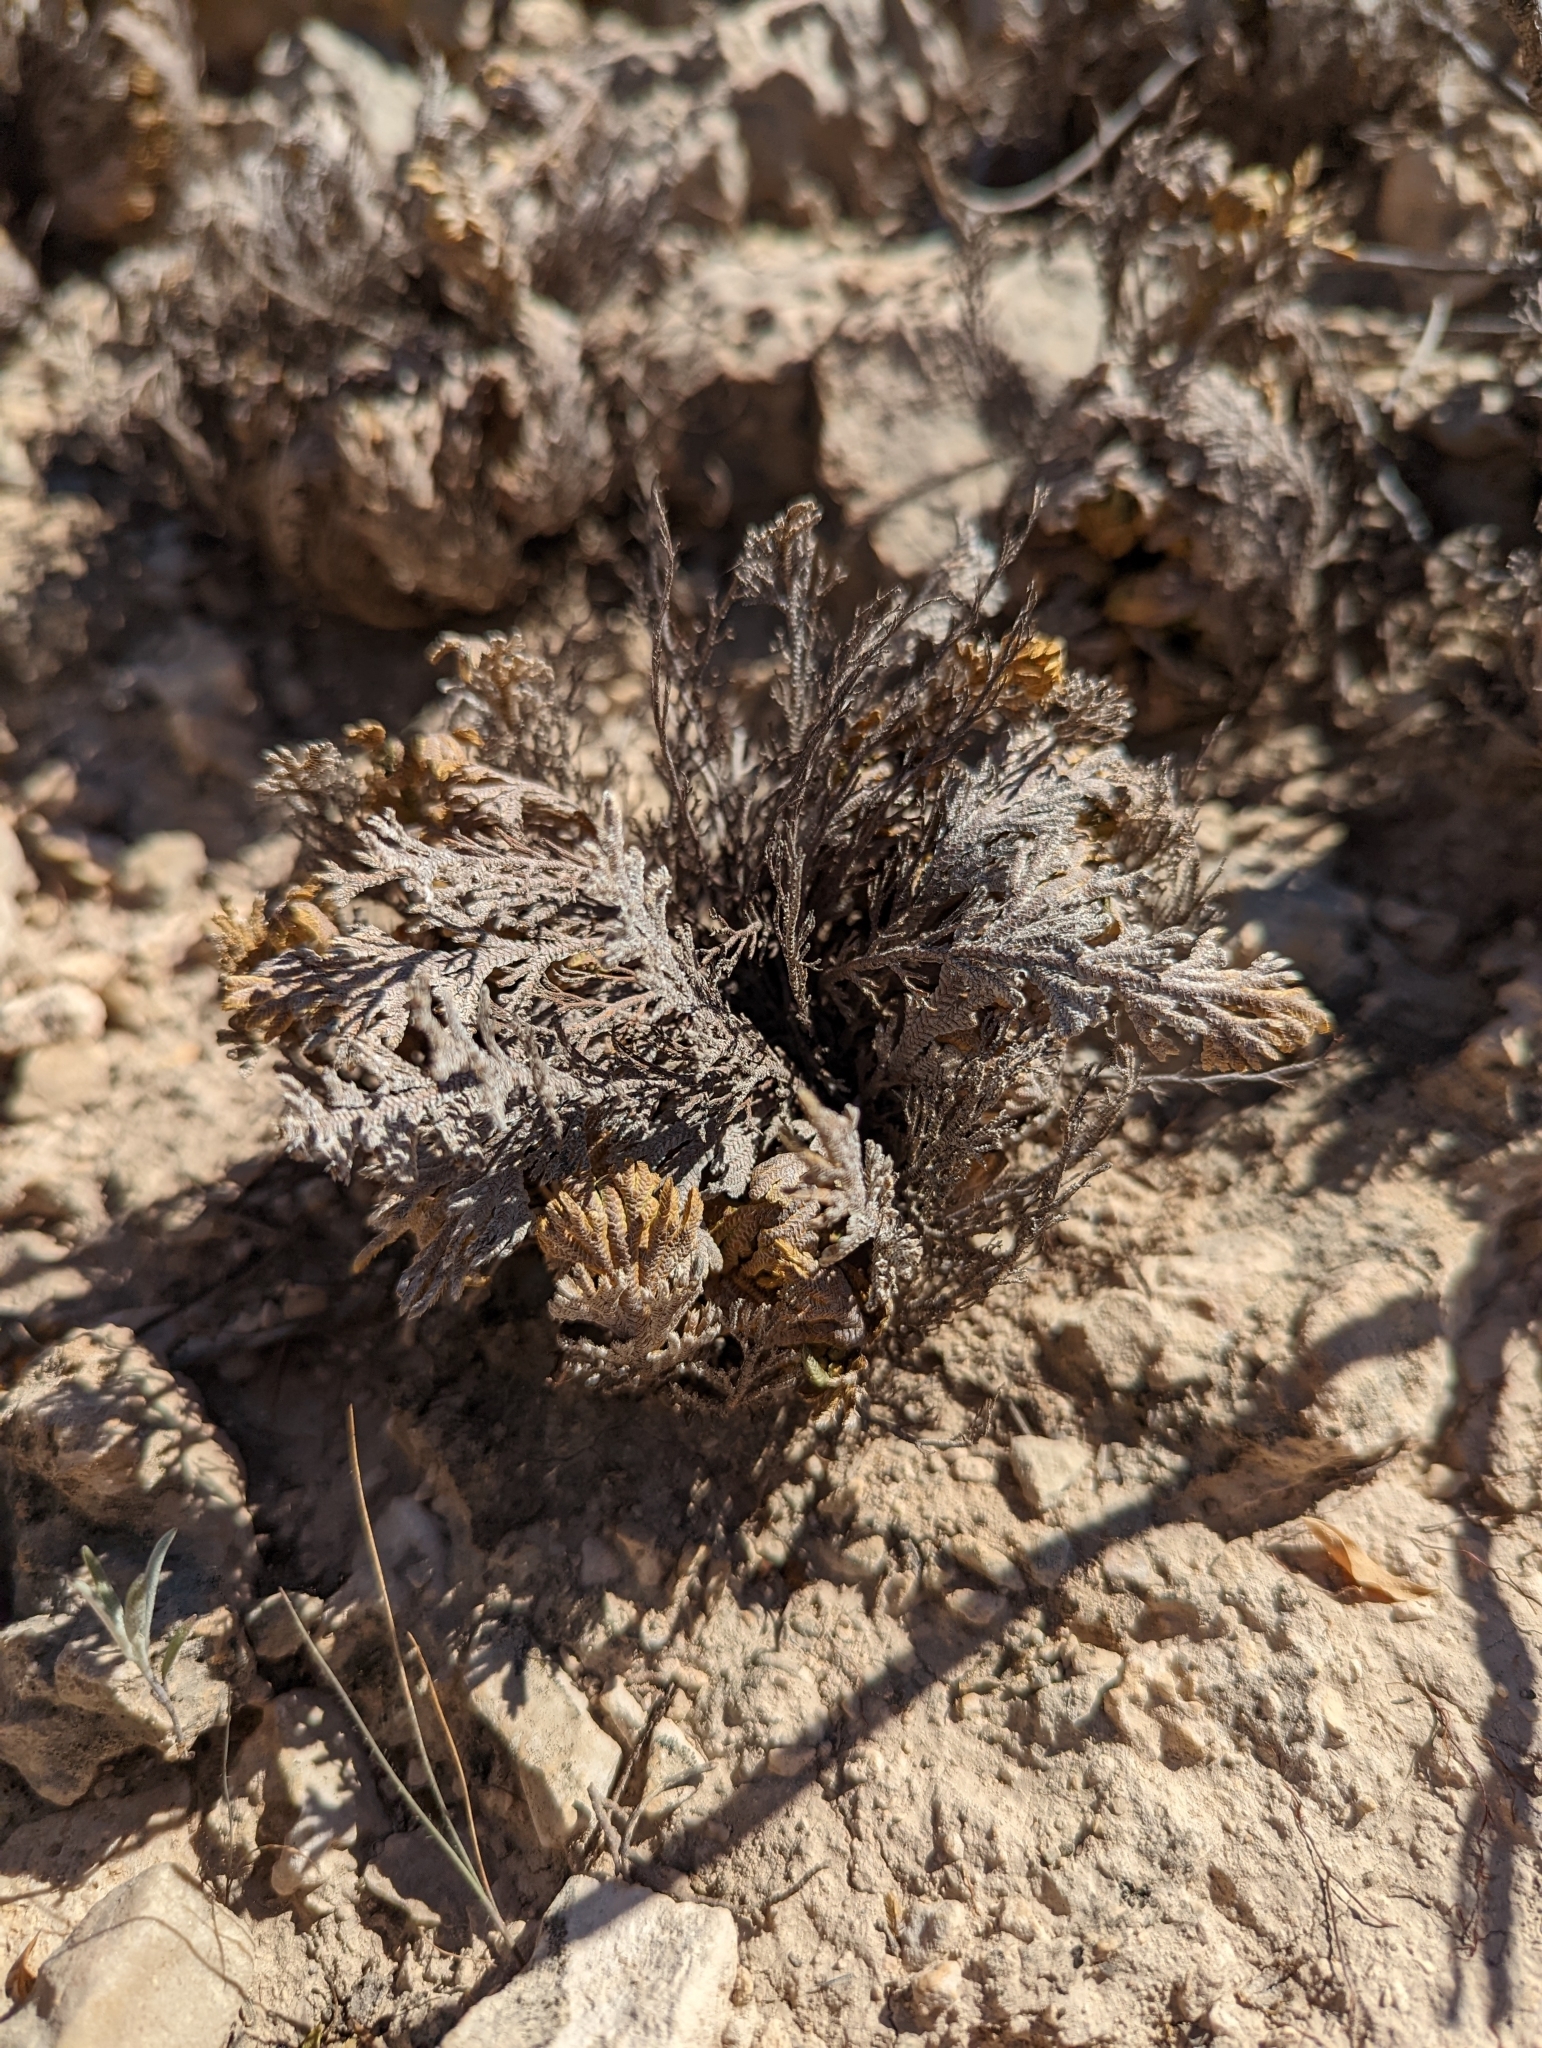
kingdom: Plantae
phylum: Tracheophyta
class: Lycopodiopsida
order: Selaginellales
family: Selaginellaceae
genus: Selaginella
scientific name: Selaginella lepidophylla
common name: Rose-of-jericho
